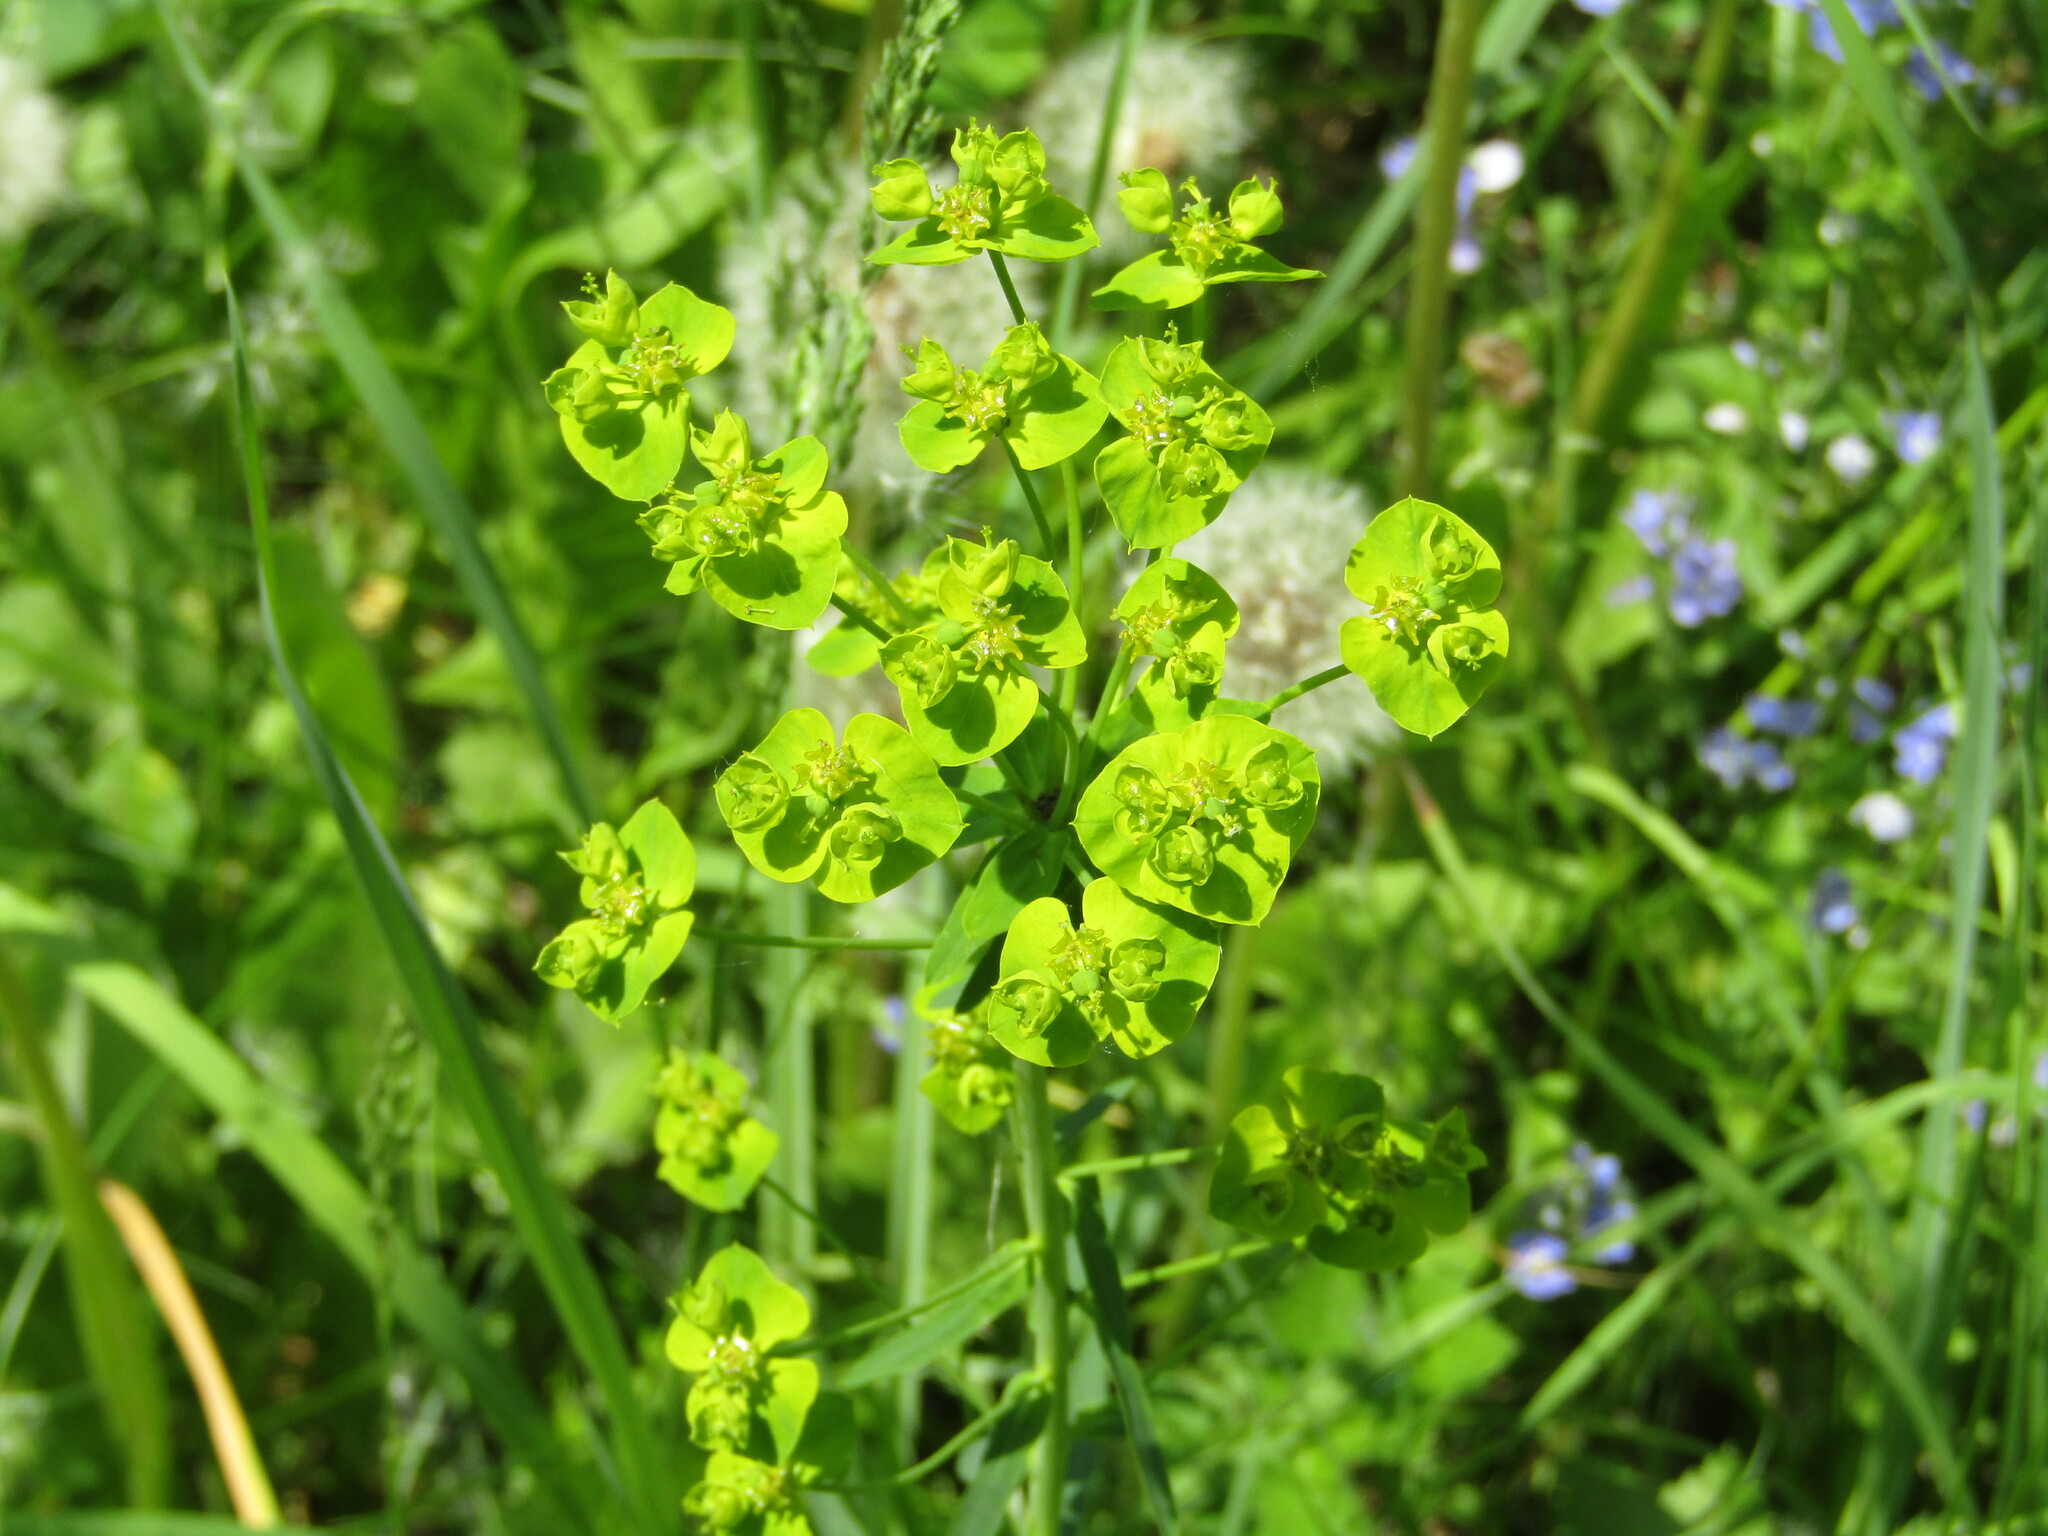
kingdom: Plantae
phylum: Tracheophyta
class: Magnoliopsida
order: Malpighiales
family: Euphorbiaceae
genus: Euphorbia
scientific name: Euphorbia virgata
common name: Leafy spurge
